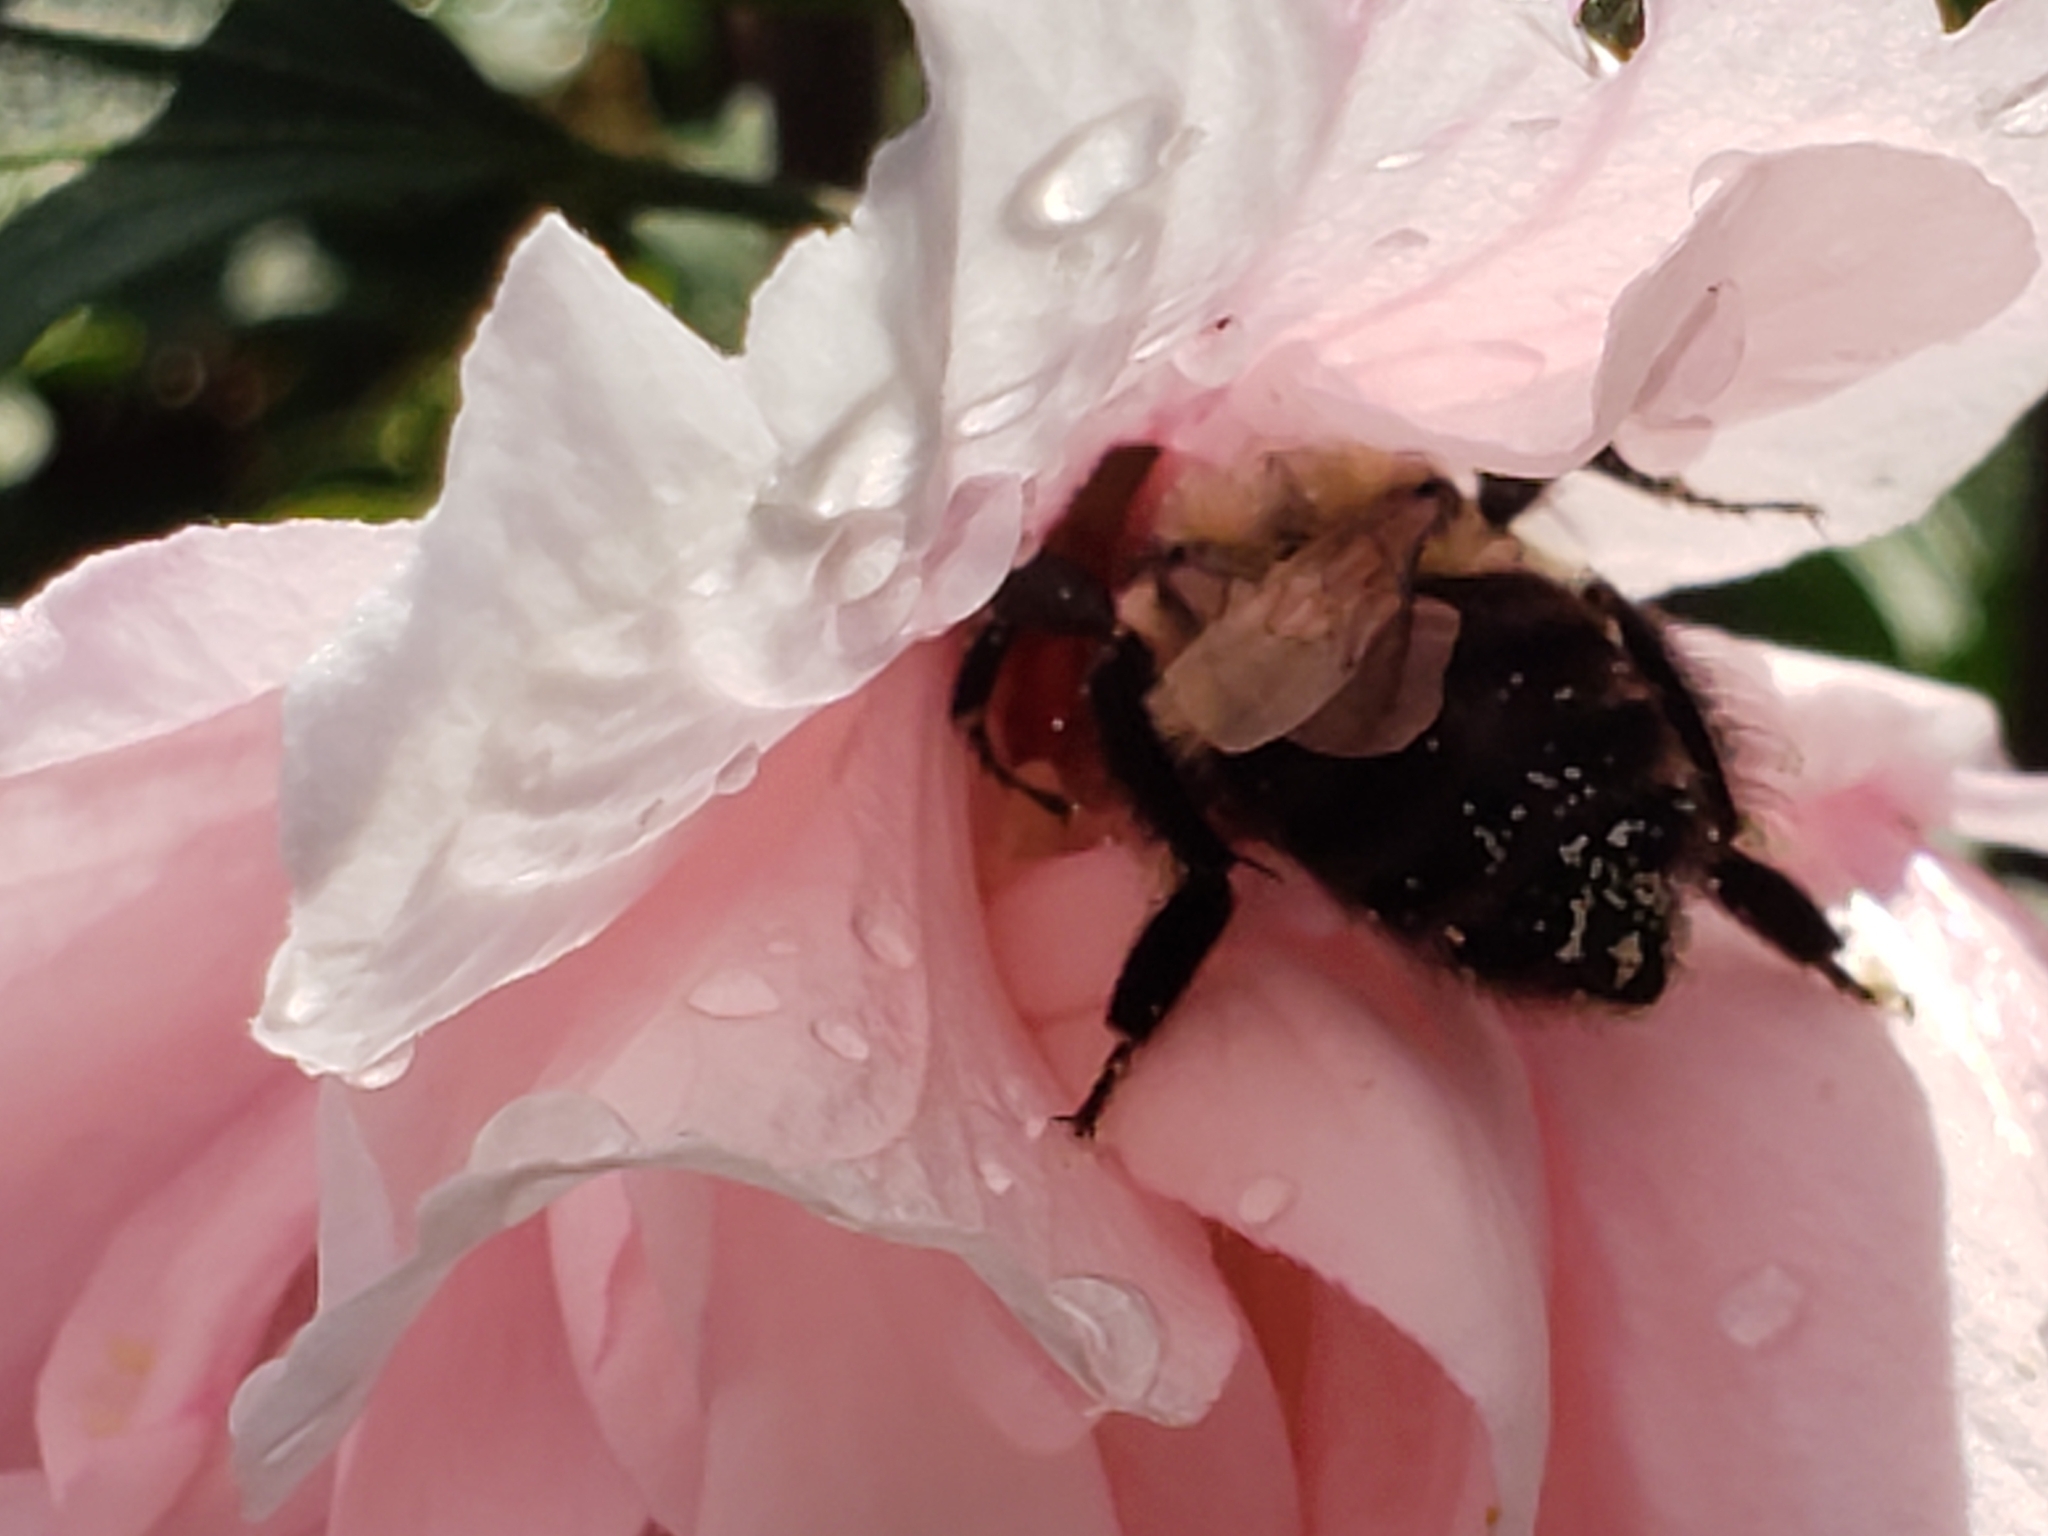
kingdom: Animalia
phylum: Arthropoda
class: Insecta
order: Hymenoptera
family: Apidae
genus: Bombus
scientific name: Bombus impatiens
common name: Common eastern bumble bee
